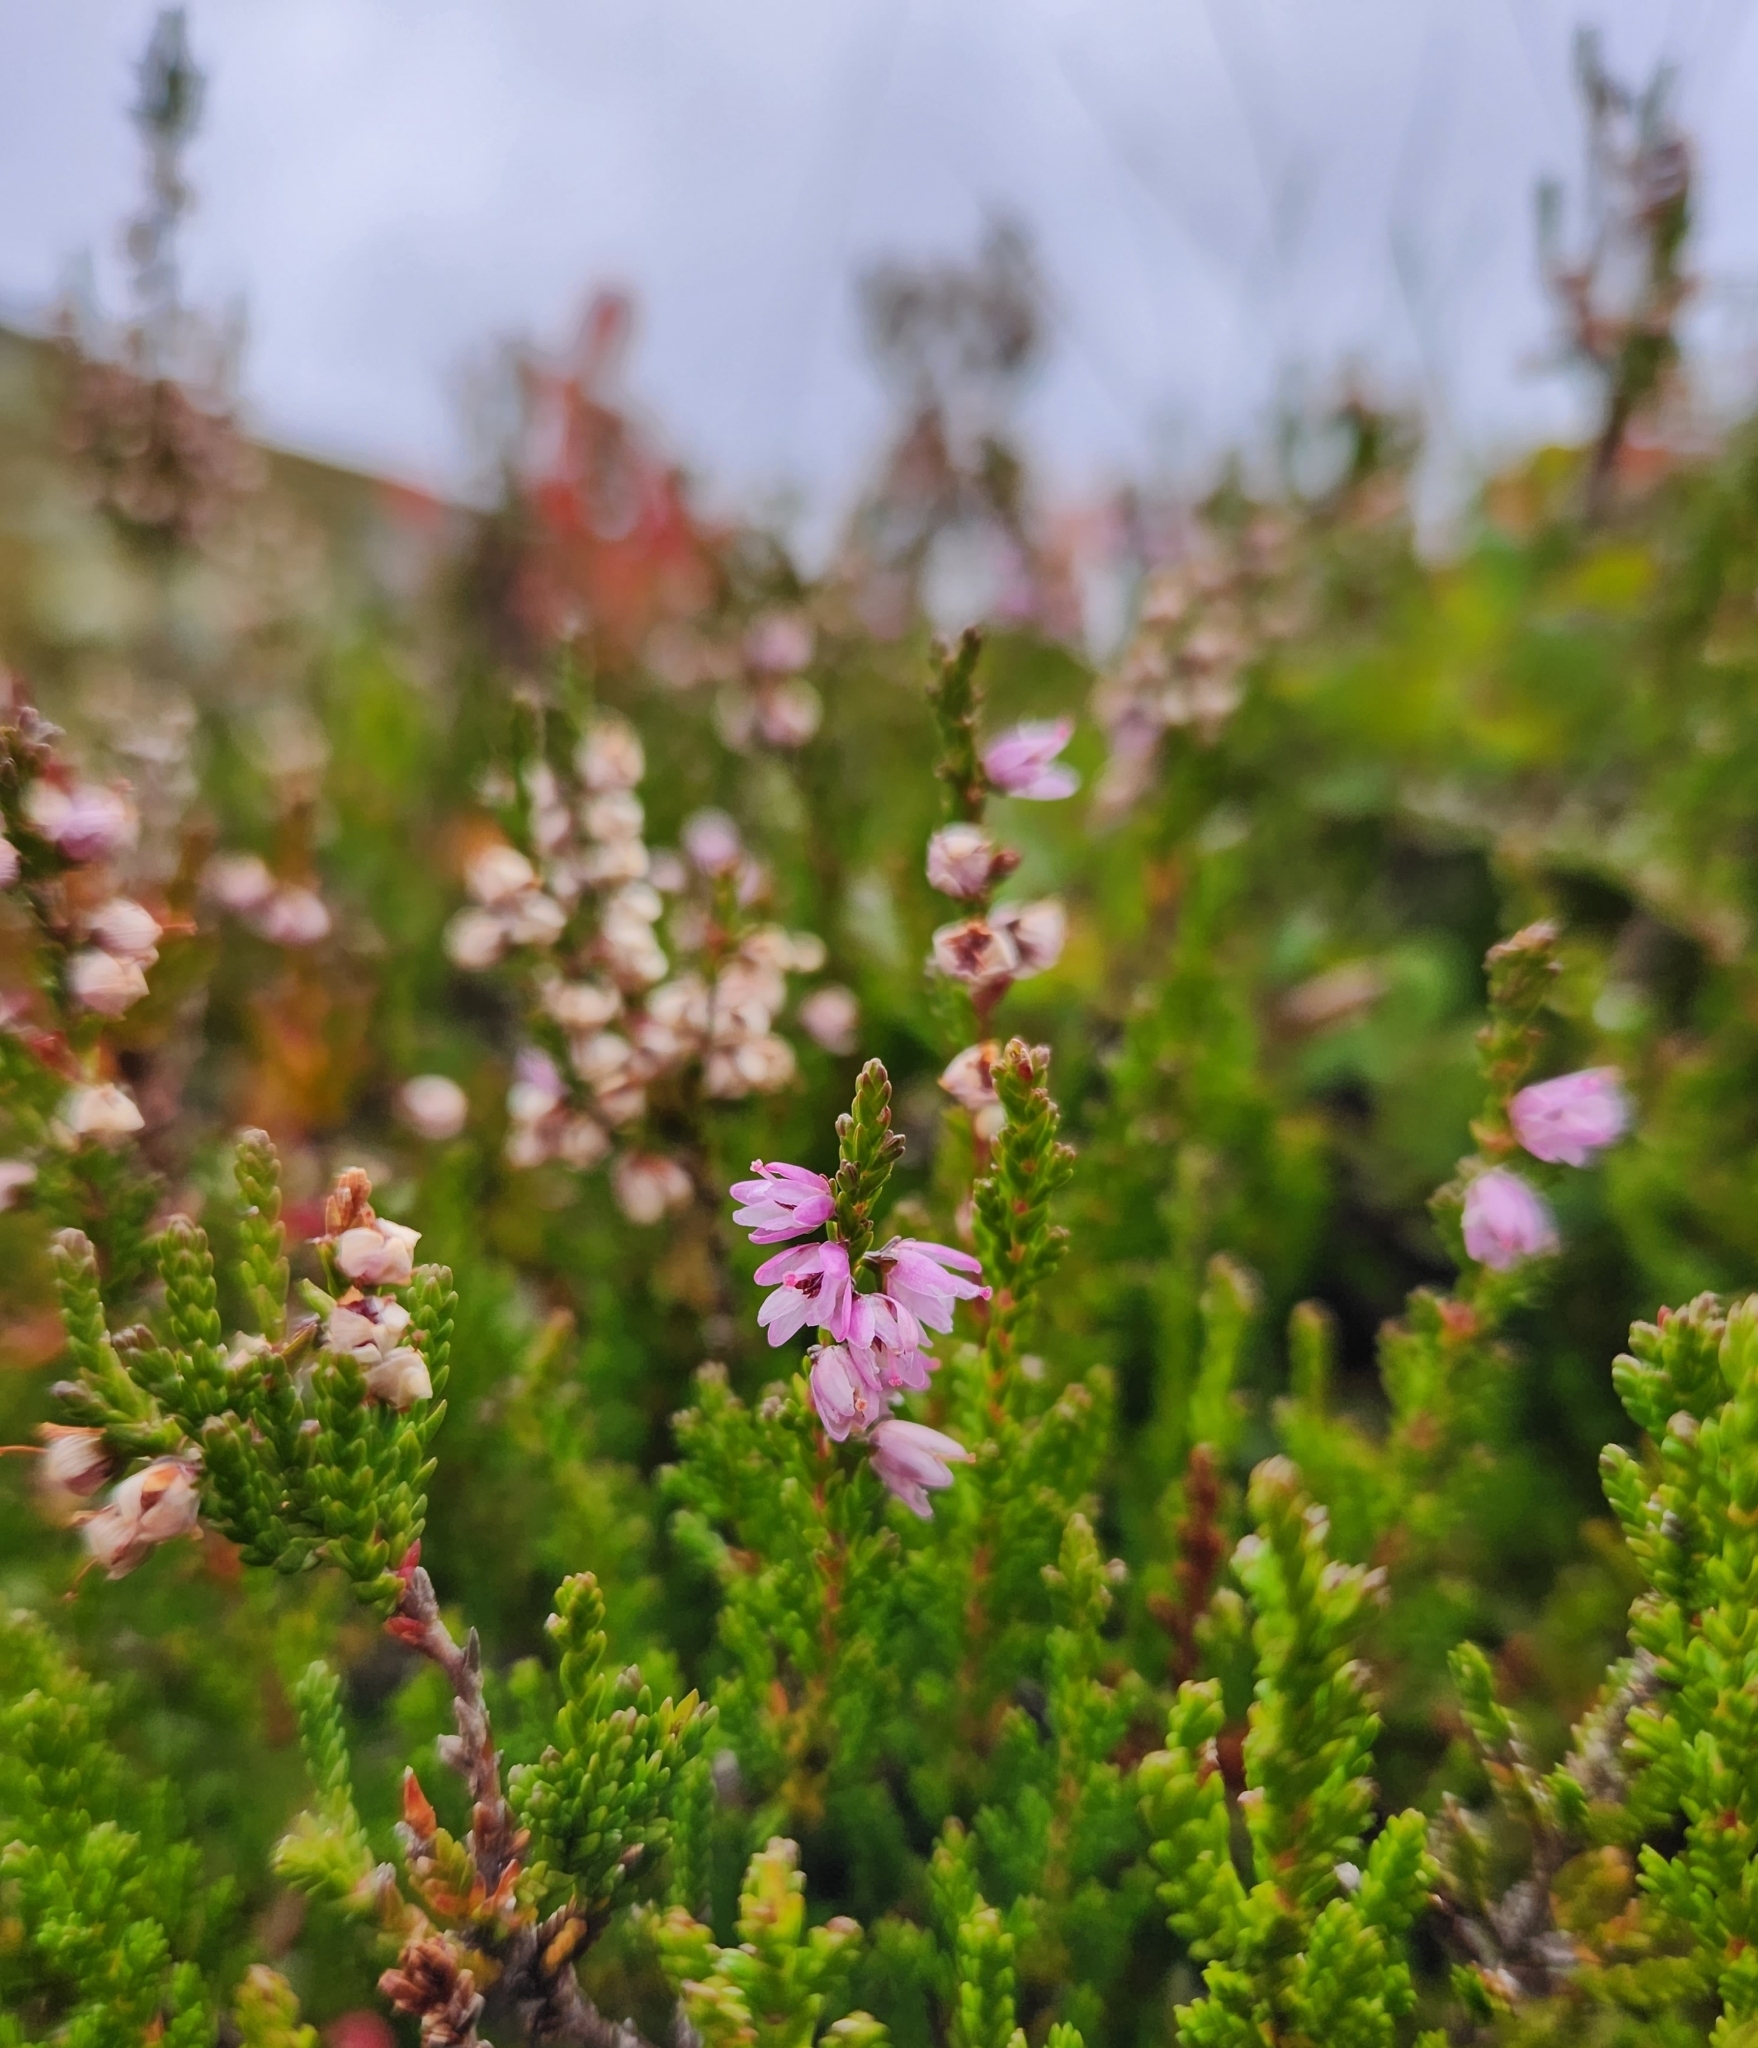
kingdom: Plantae
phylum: Tracheophyta
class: Magnoliopsida
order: Ericales
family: Ericaceae
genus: Calluna
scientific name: Calluna vulgaris
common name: Heather
